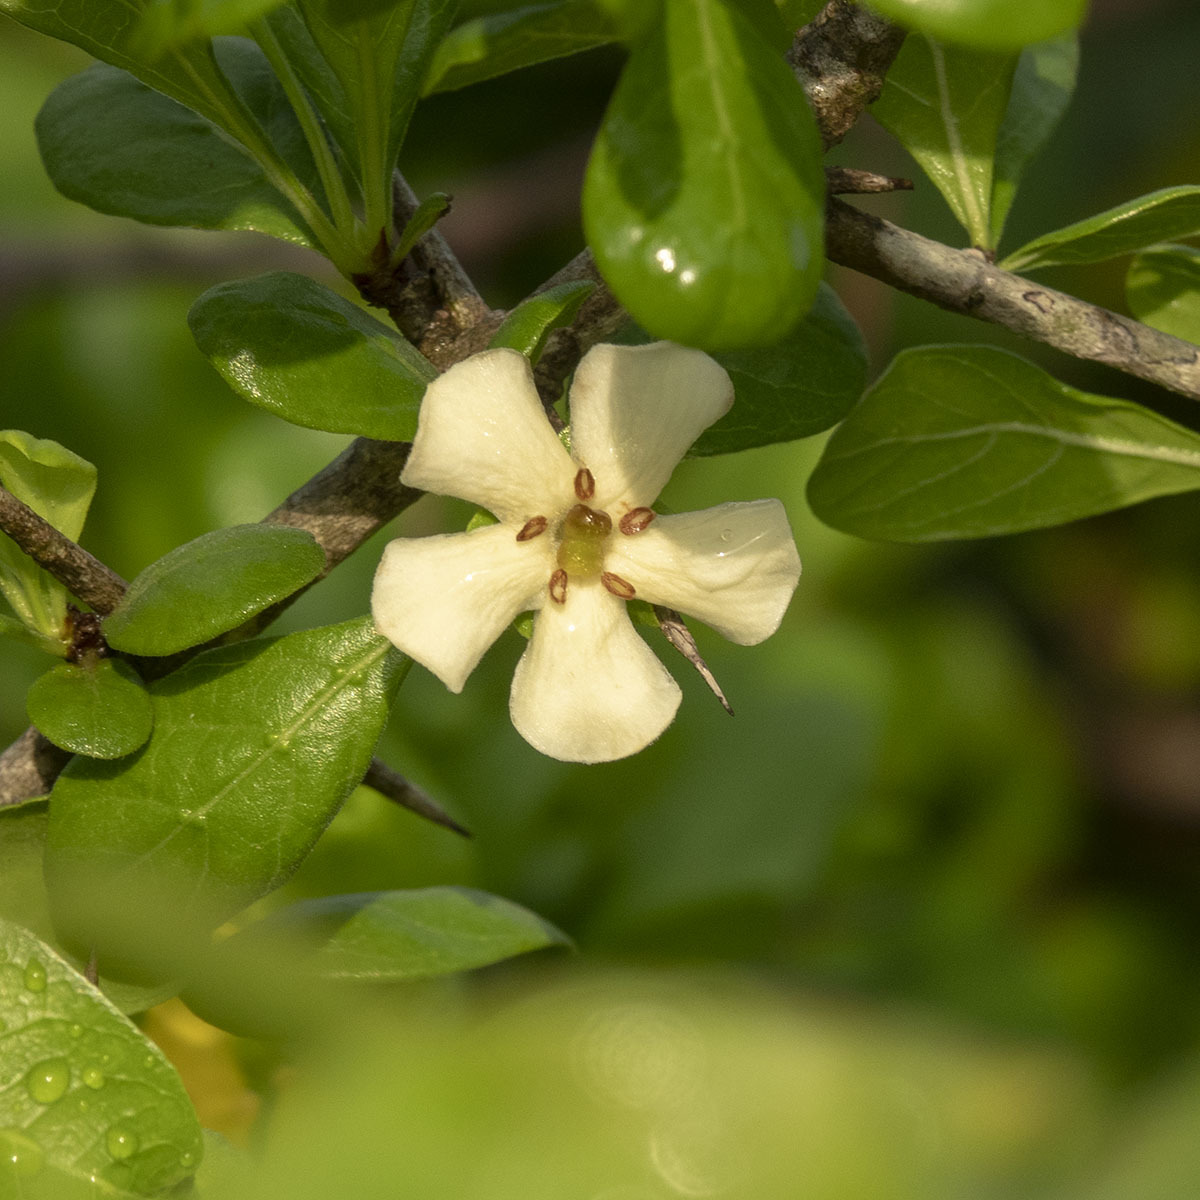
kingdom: Plantae
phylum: Tracheophyta
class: Magnoliopsida
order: Gentianales
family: Rubiaceae
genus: Catunaregam
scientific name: Catunaregam spinosa
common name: Emetic-nut
